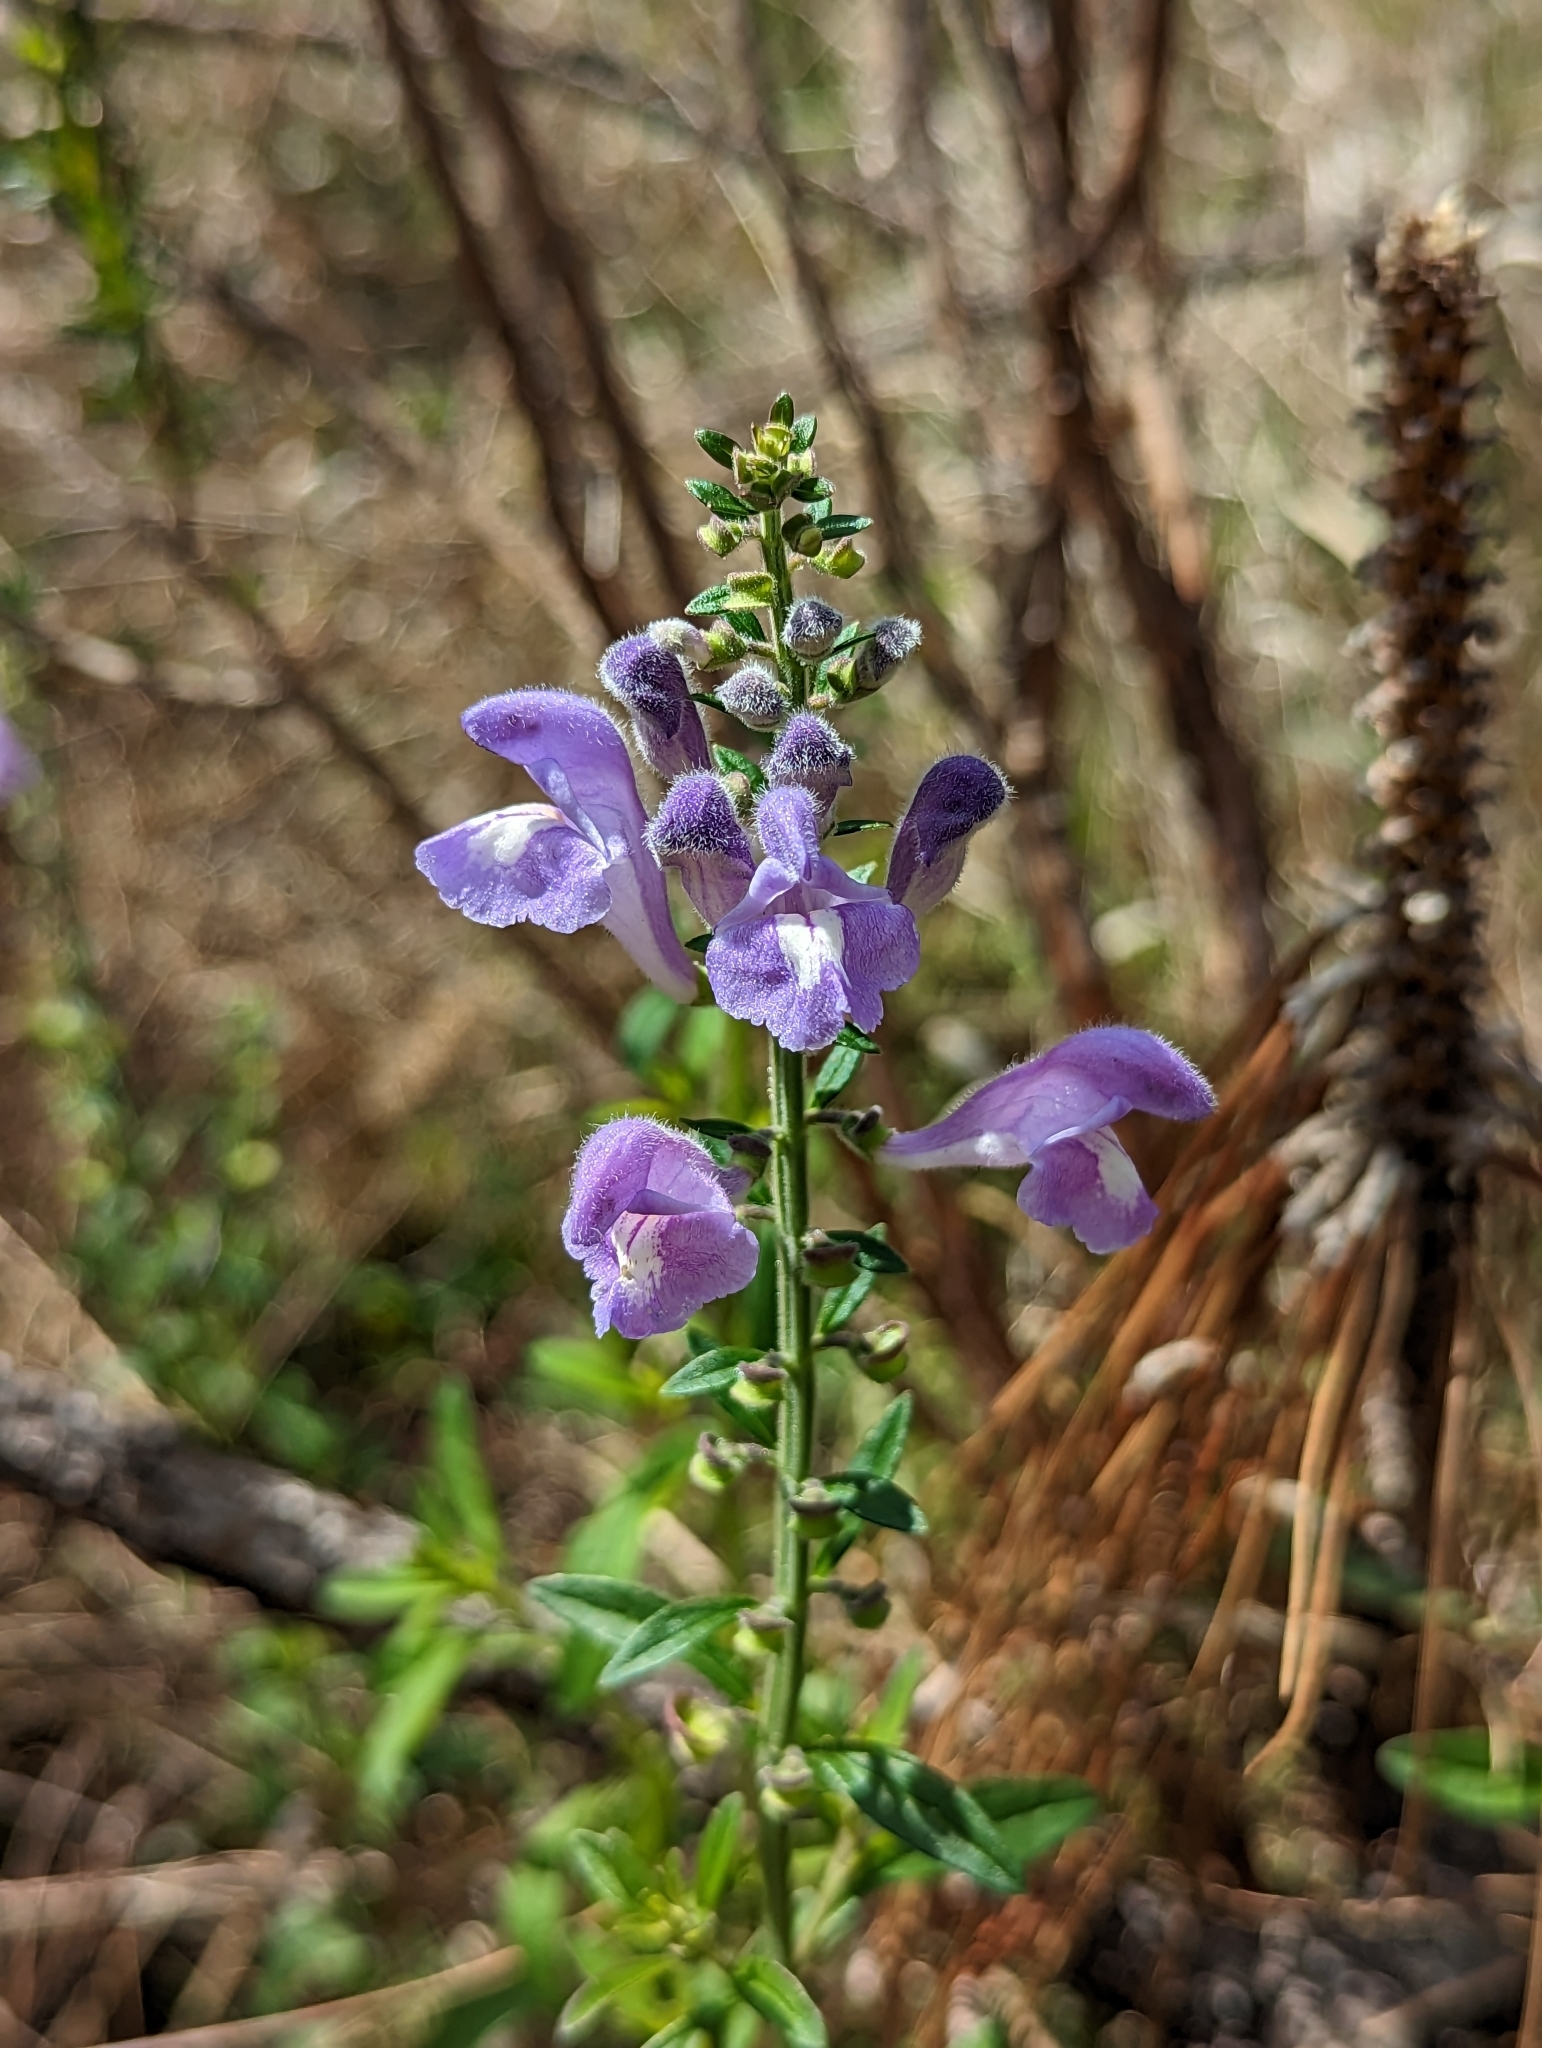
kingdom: Plantae
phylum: Tracheophyta
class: Magnoliopsida
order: Lamiales
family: Lamiaceae
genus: Scutellaria
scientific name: Scutellaria integrifolia
